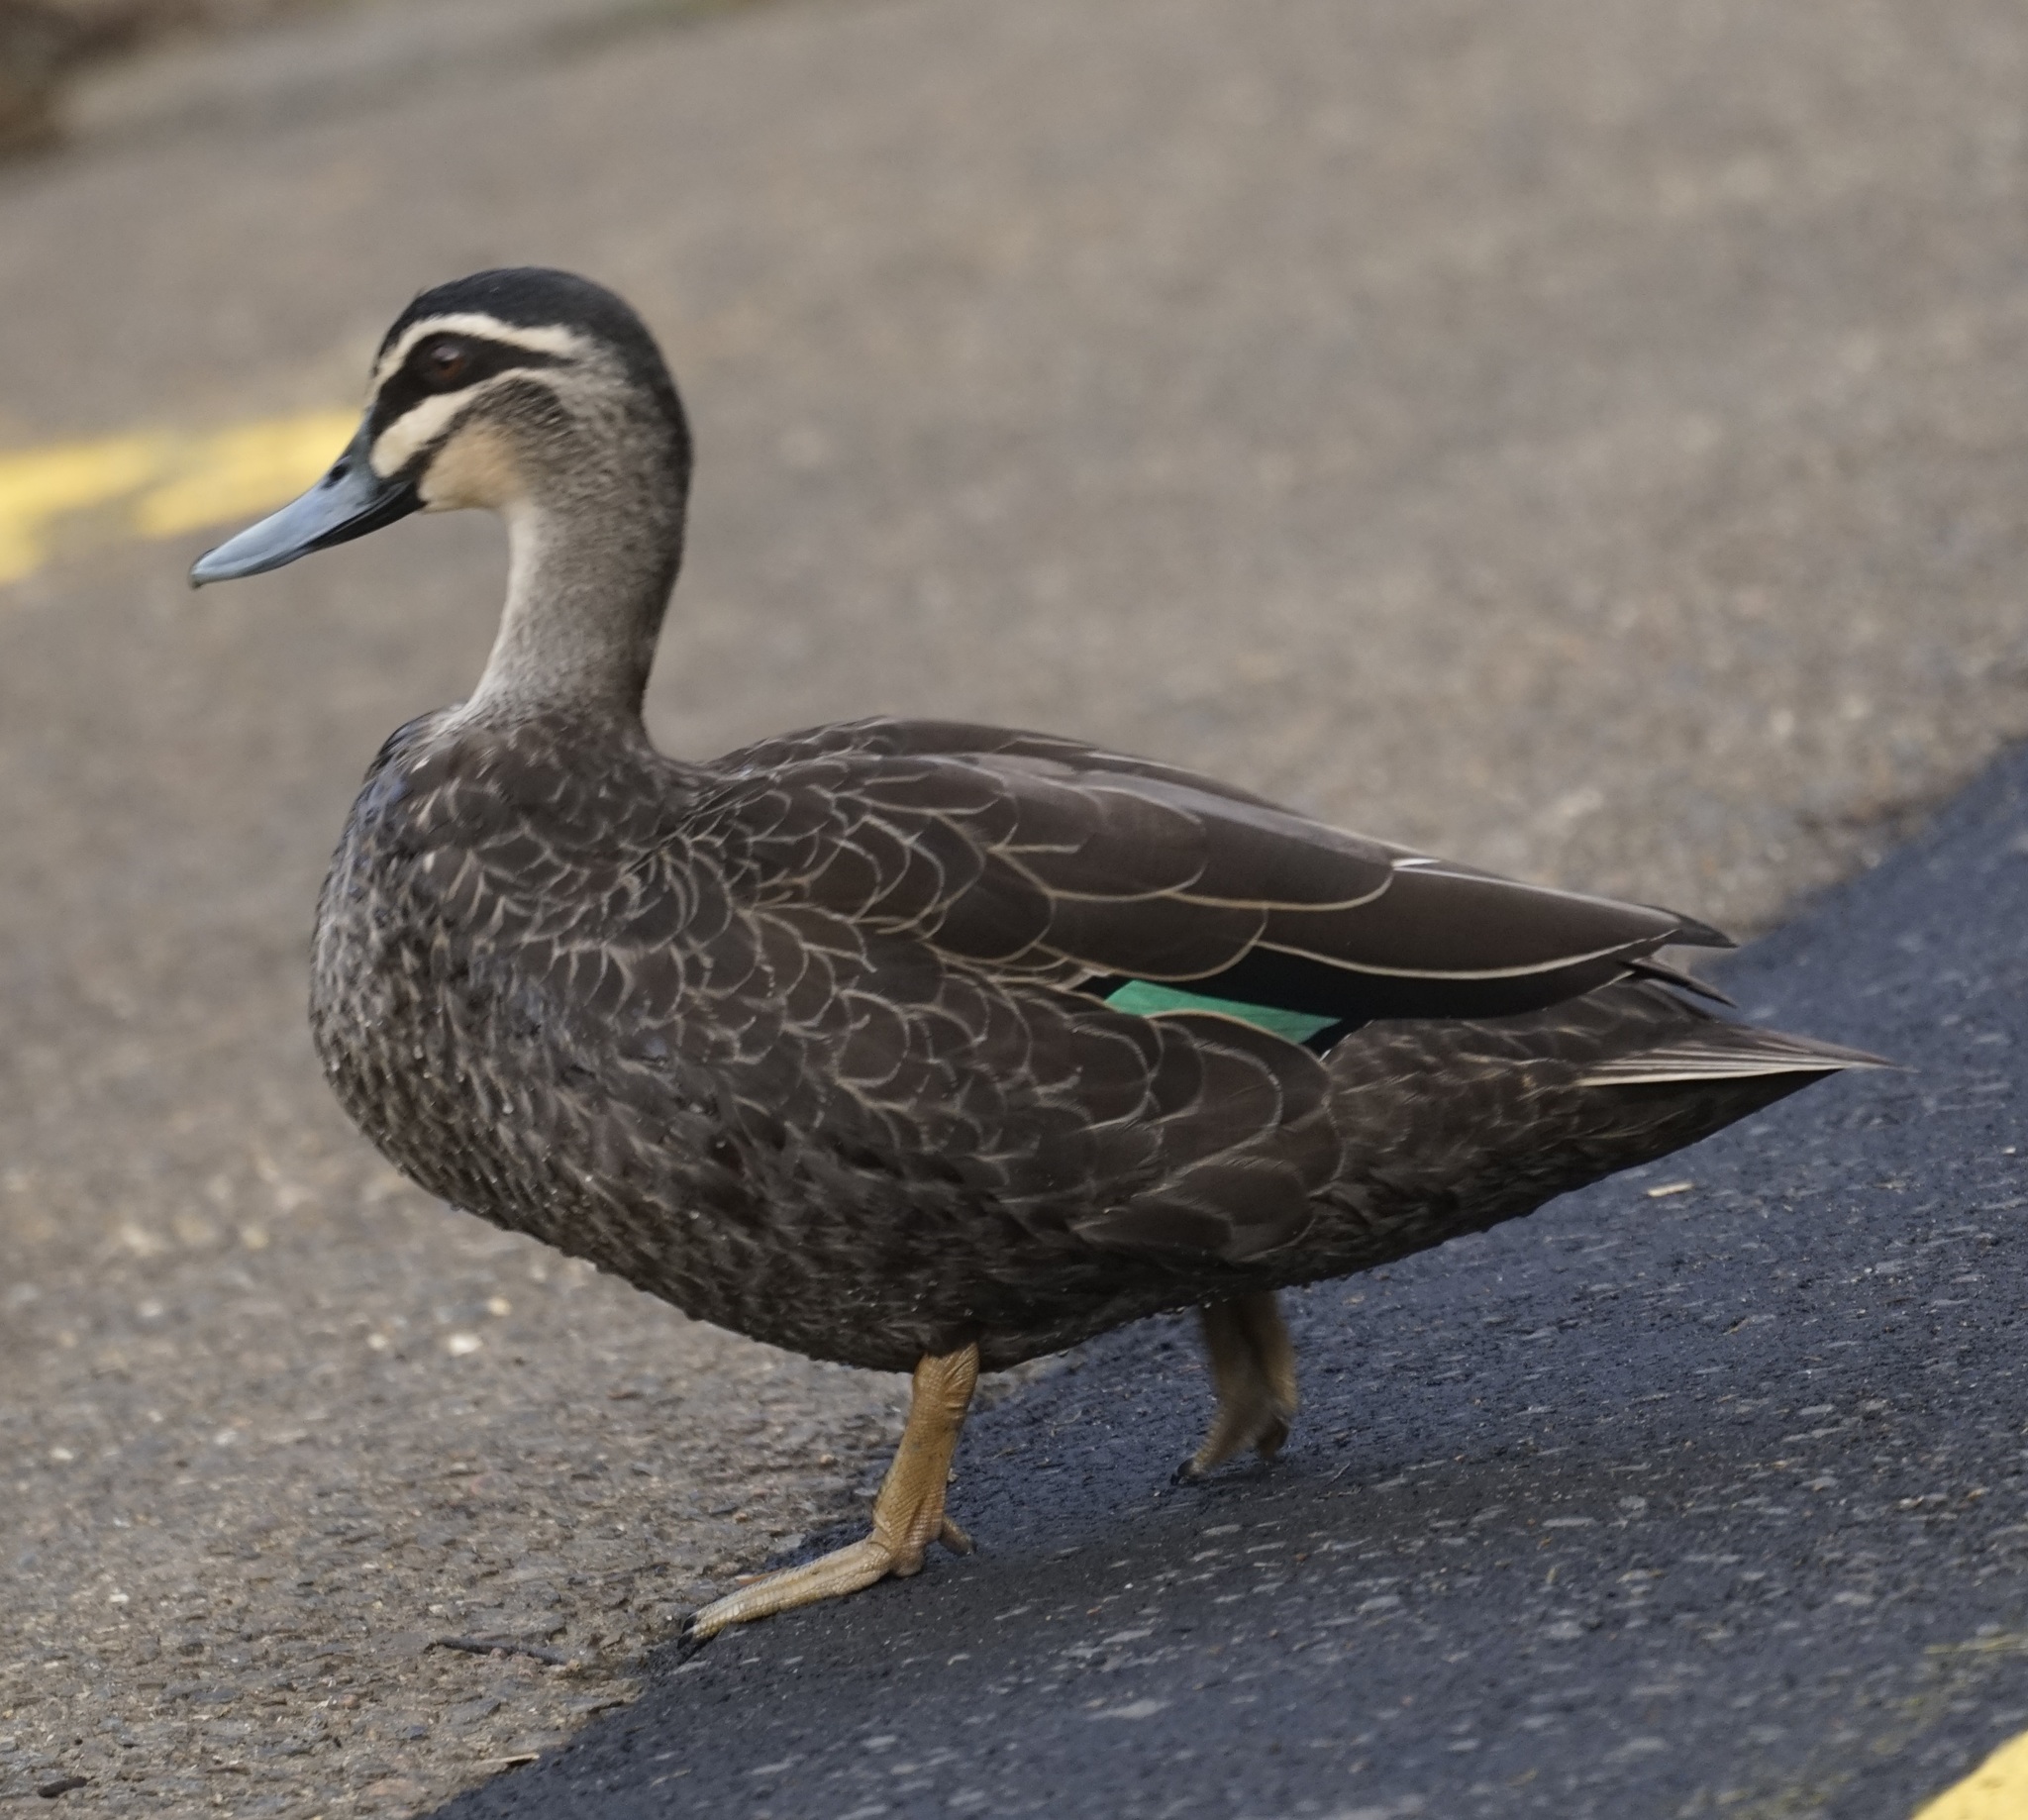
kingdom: Animalia
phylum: Chordata
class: Aves
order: Anseriformes
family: Anatidae
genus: Anas
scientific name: Anas superciliosa
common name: Pacific black duck
